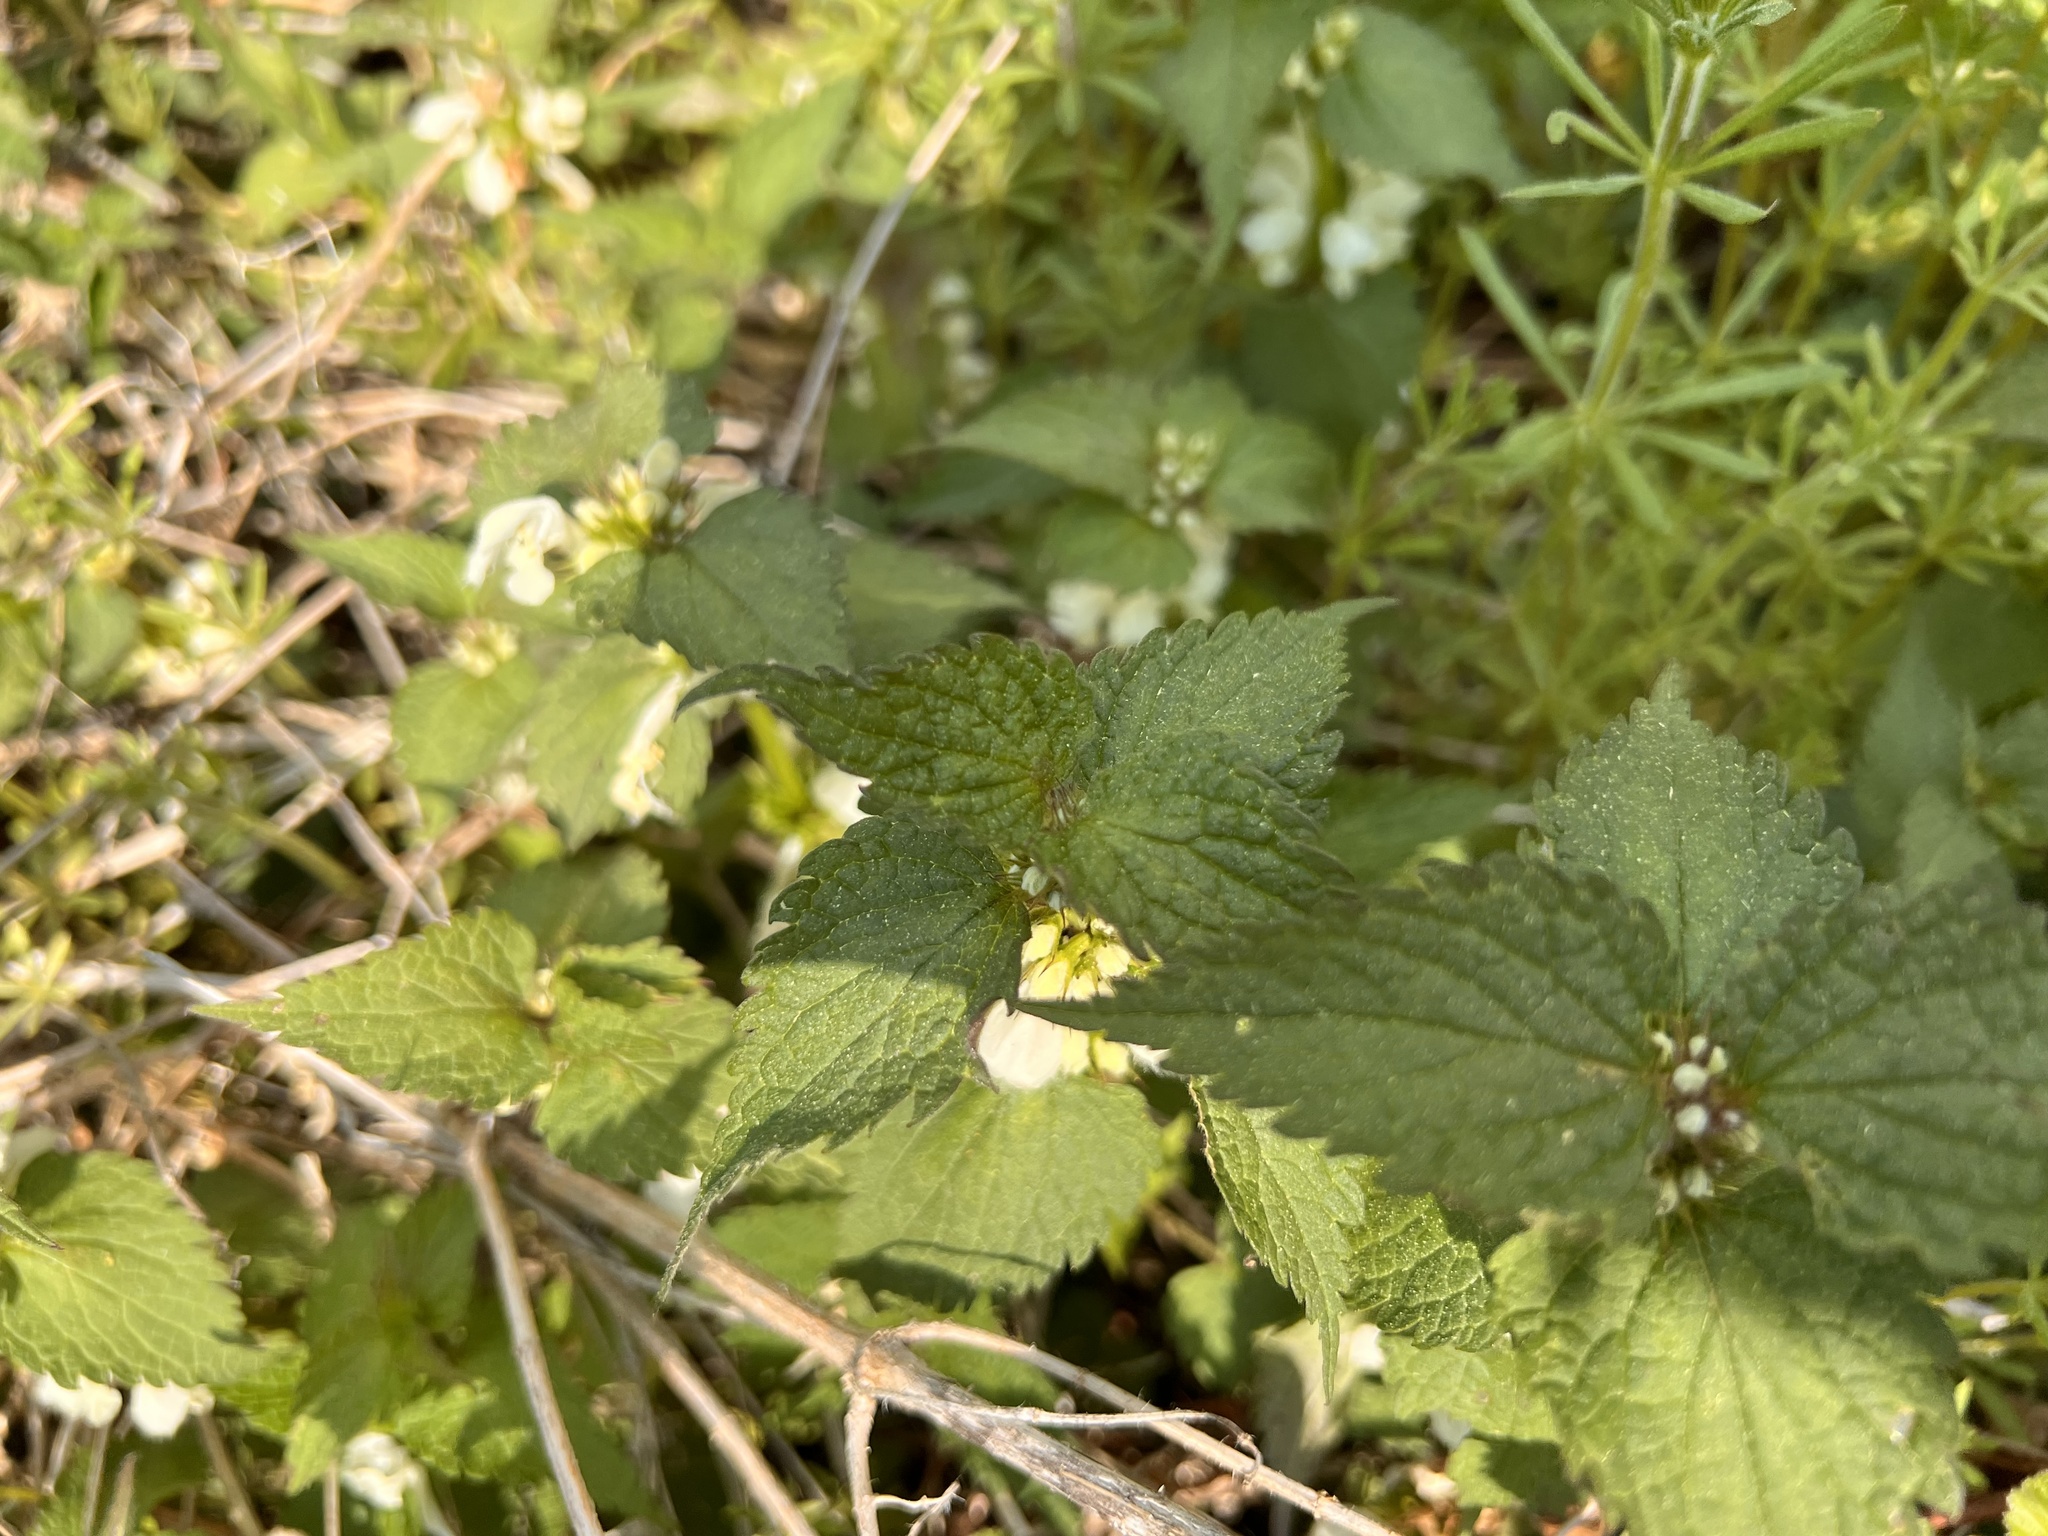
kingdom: Plantae
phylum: Tracheophyta
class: Magnoliopsida
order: Lamiales
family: Lamiaceae
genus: Lamium
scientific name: Lamium album
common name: White dead-nettle
